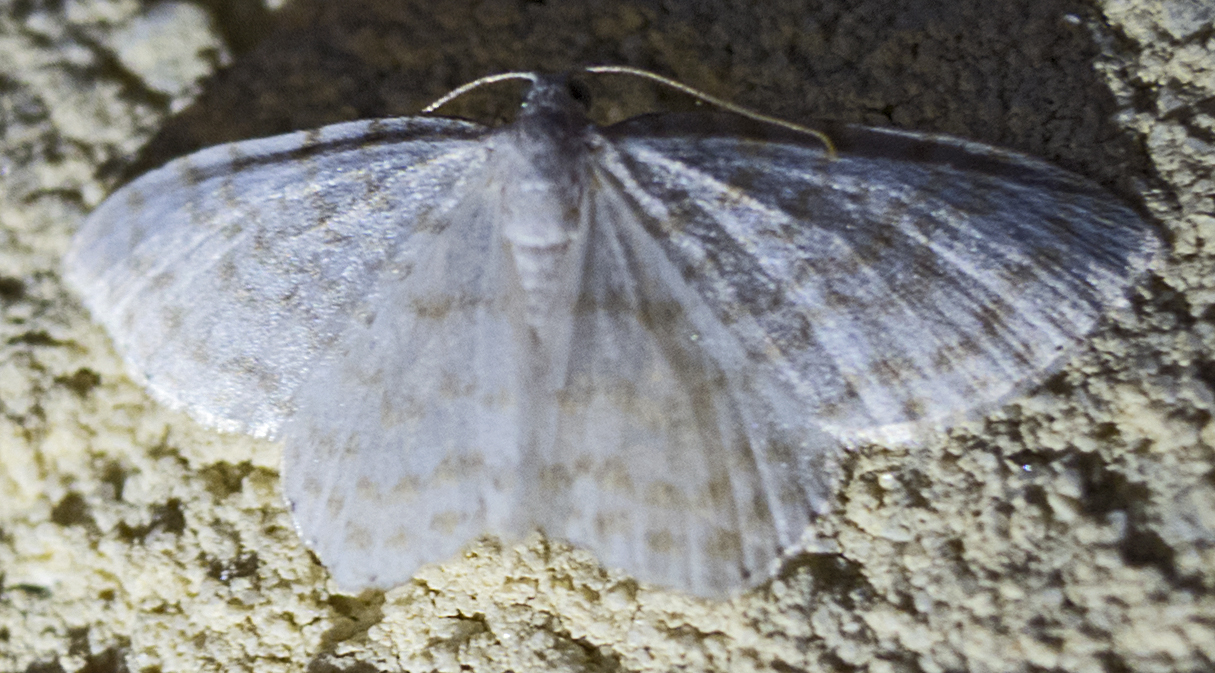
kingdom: Animalia
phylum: Arthropoda
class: Insecta
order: Lepidoptera
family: Geometridae
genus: Asthena
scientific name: Asthena albulata
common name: Small white wave
